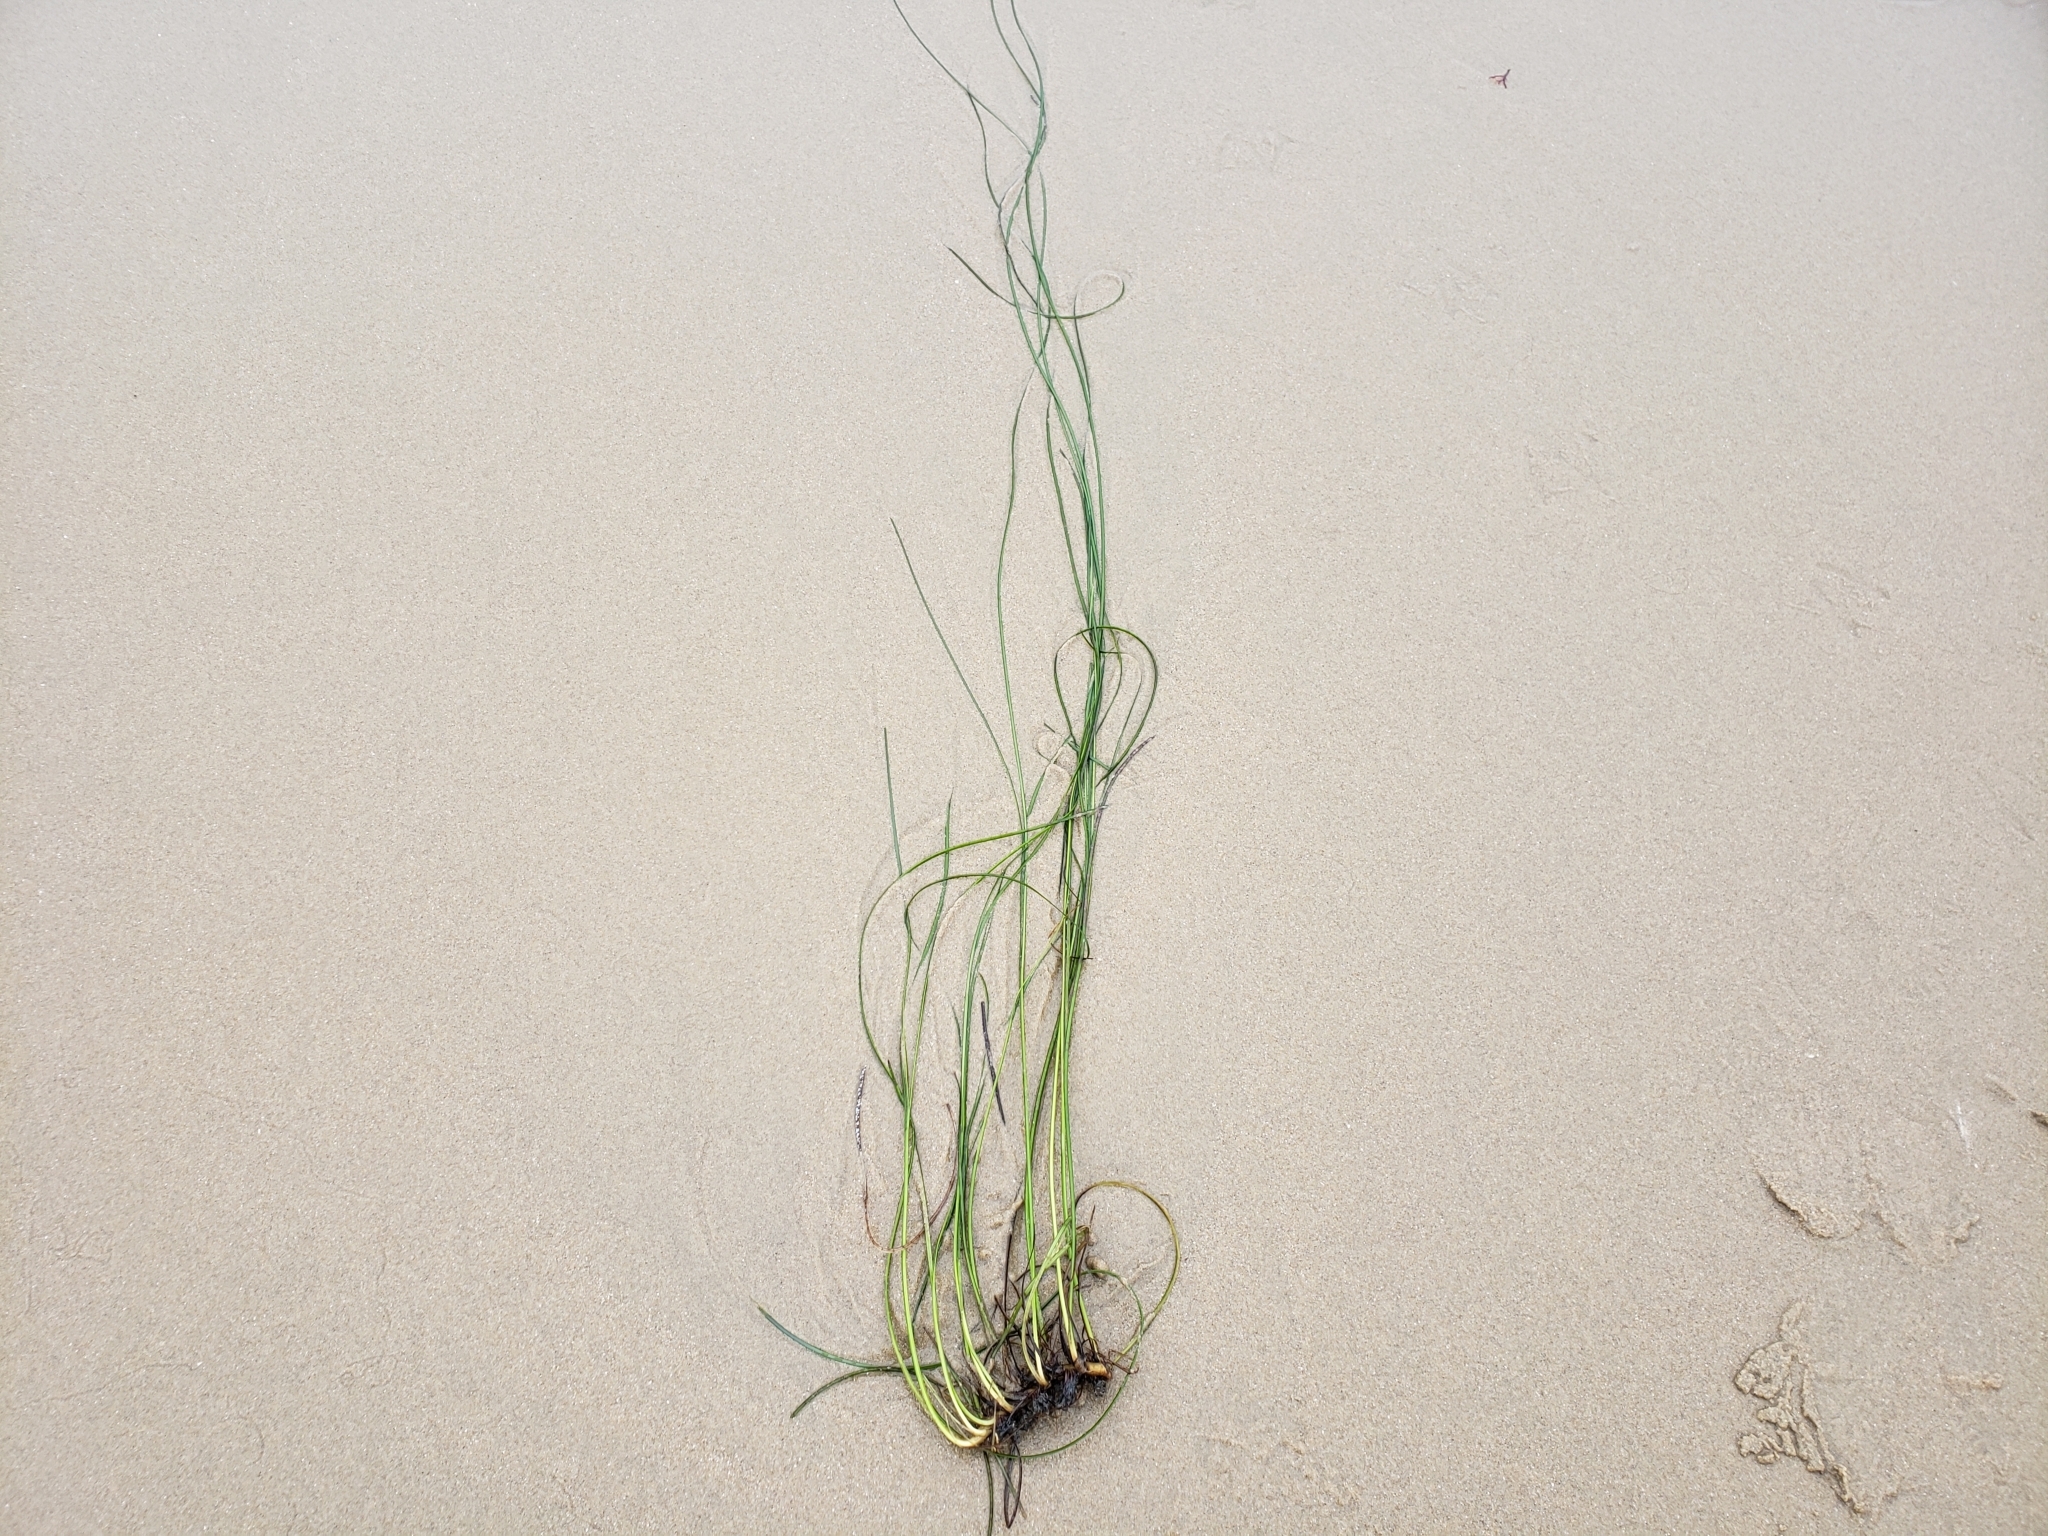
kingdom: Plantae
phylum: Tracheophyta
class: Liliopsida
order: Alismatales
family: Zosteraceae
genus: Phyllospadix
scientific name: Phyllospadix torreyi
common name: Surfgrass
